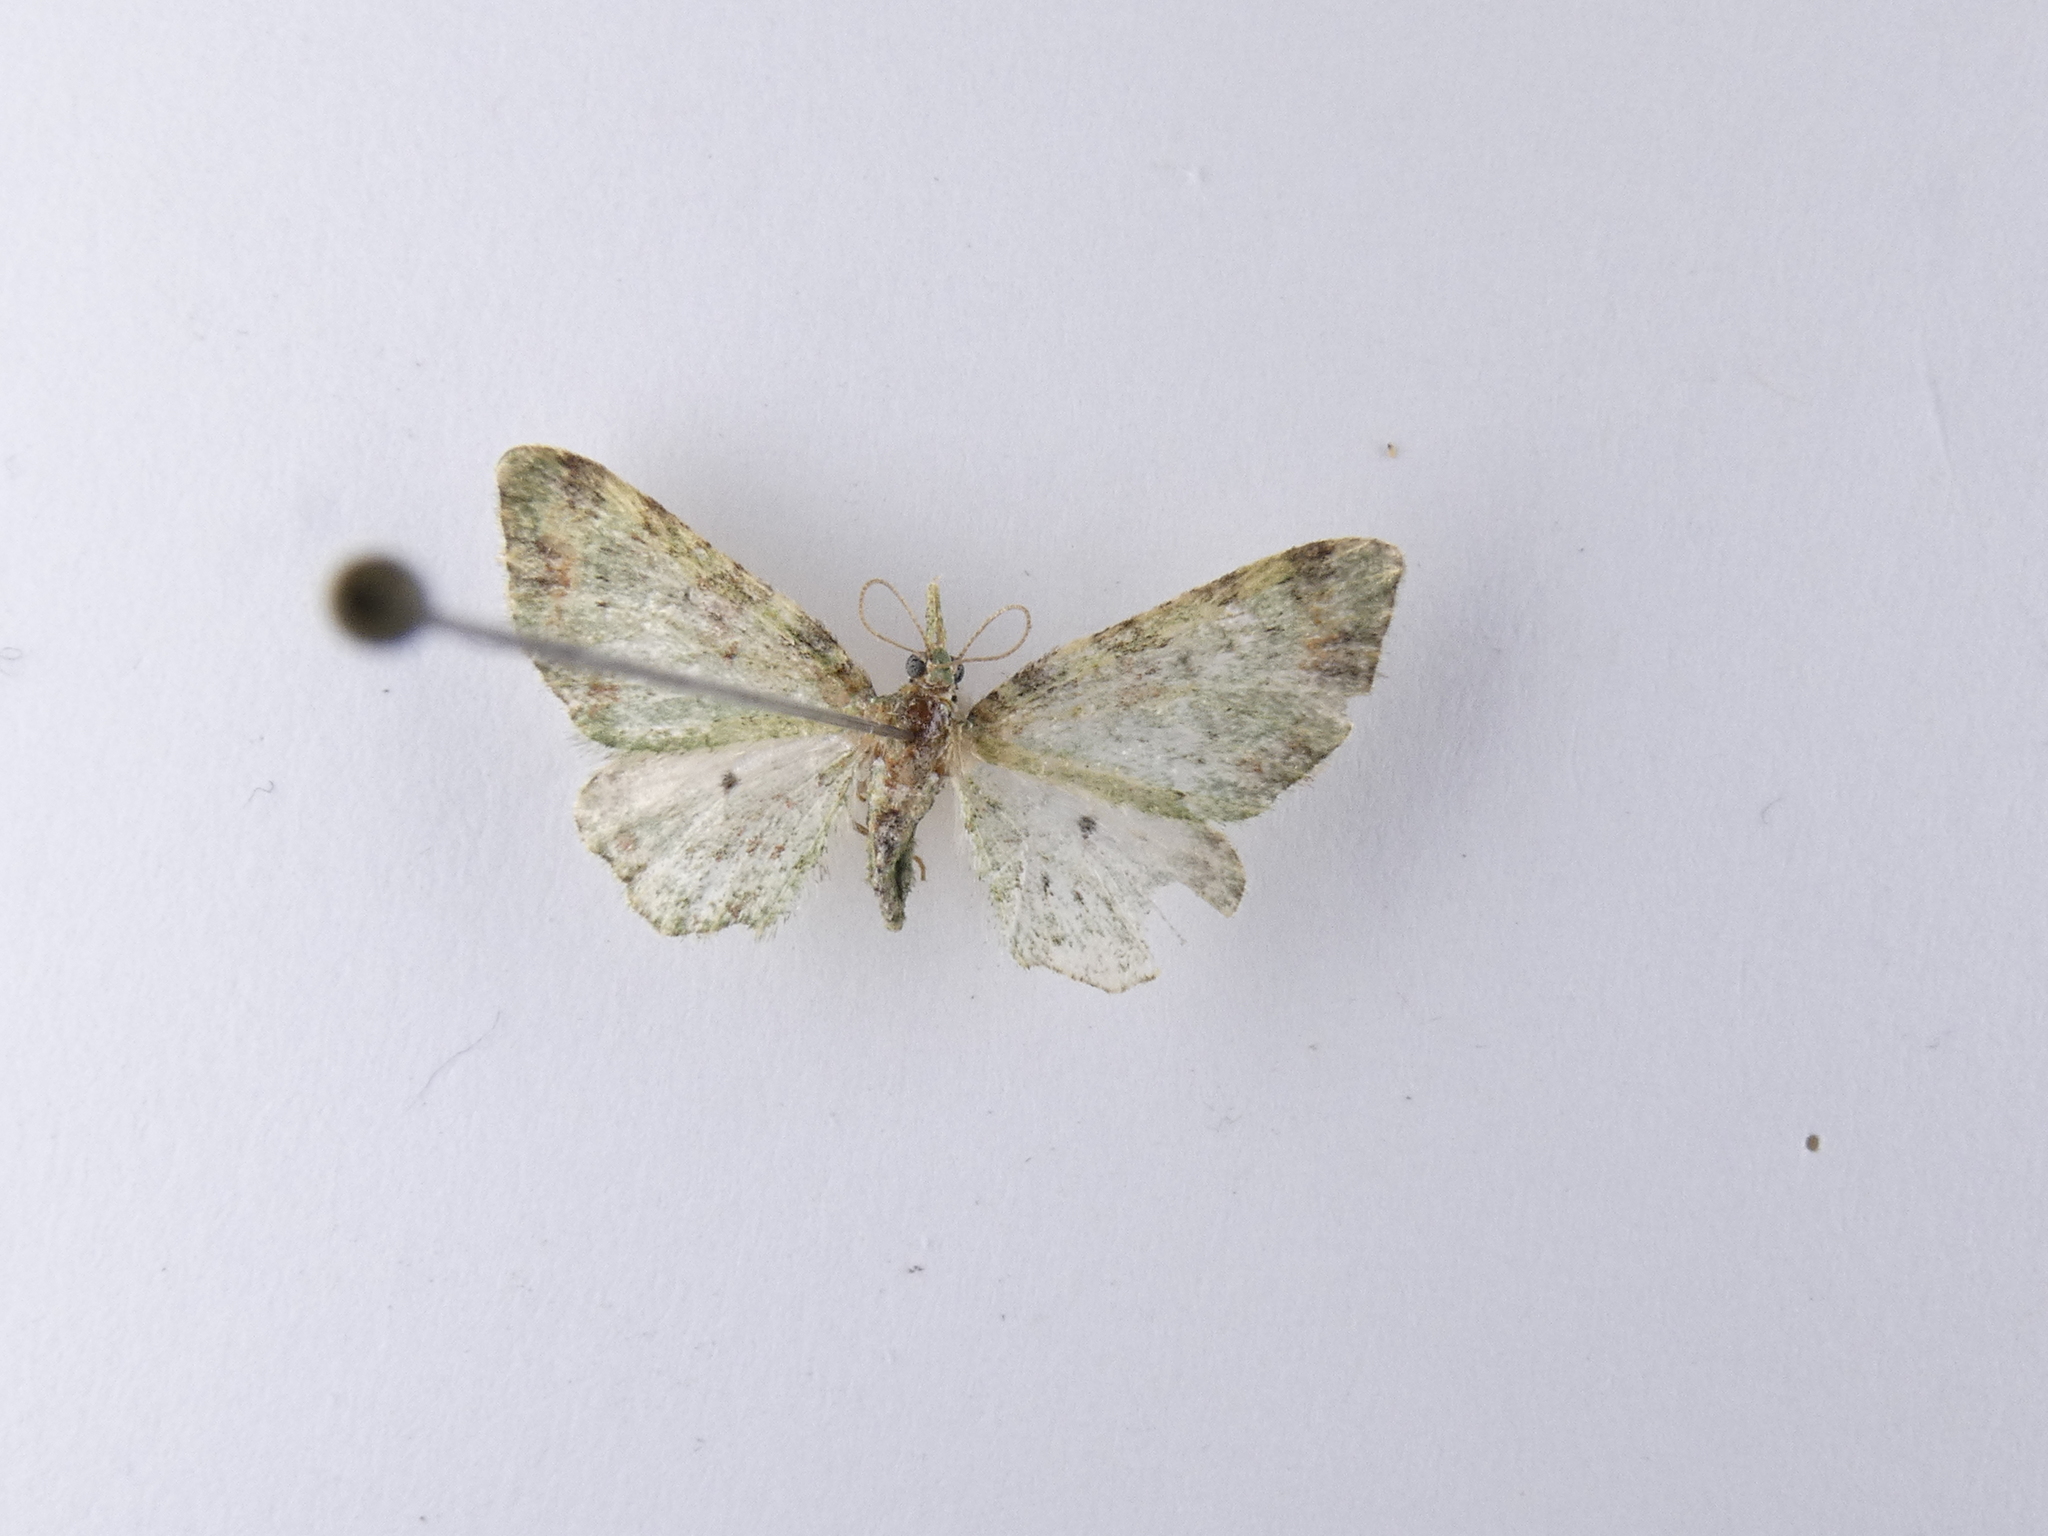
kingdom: Animalia
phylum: Arthropoda
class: Insecta
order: Lepidoptera
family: Geometridae
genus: Pasiphila
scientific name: Pasiphila semochlora
